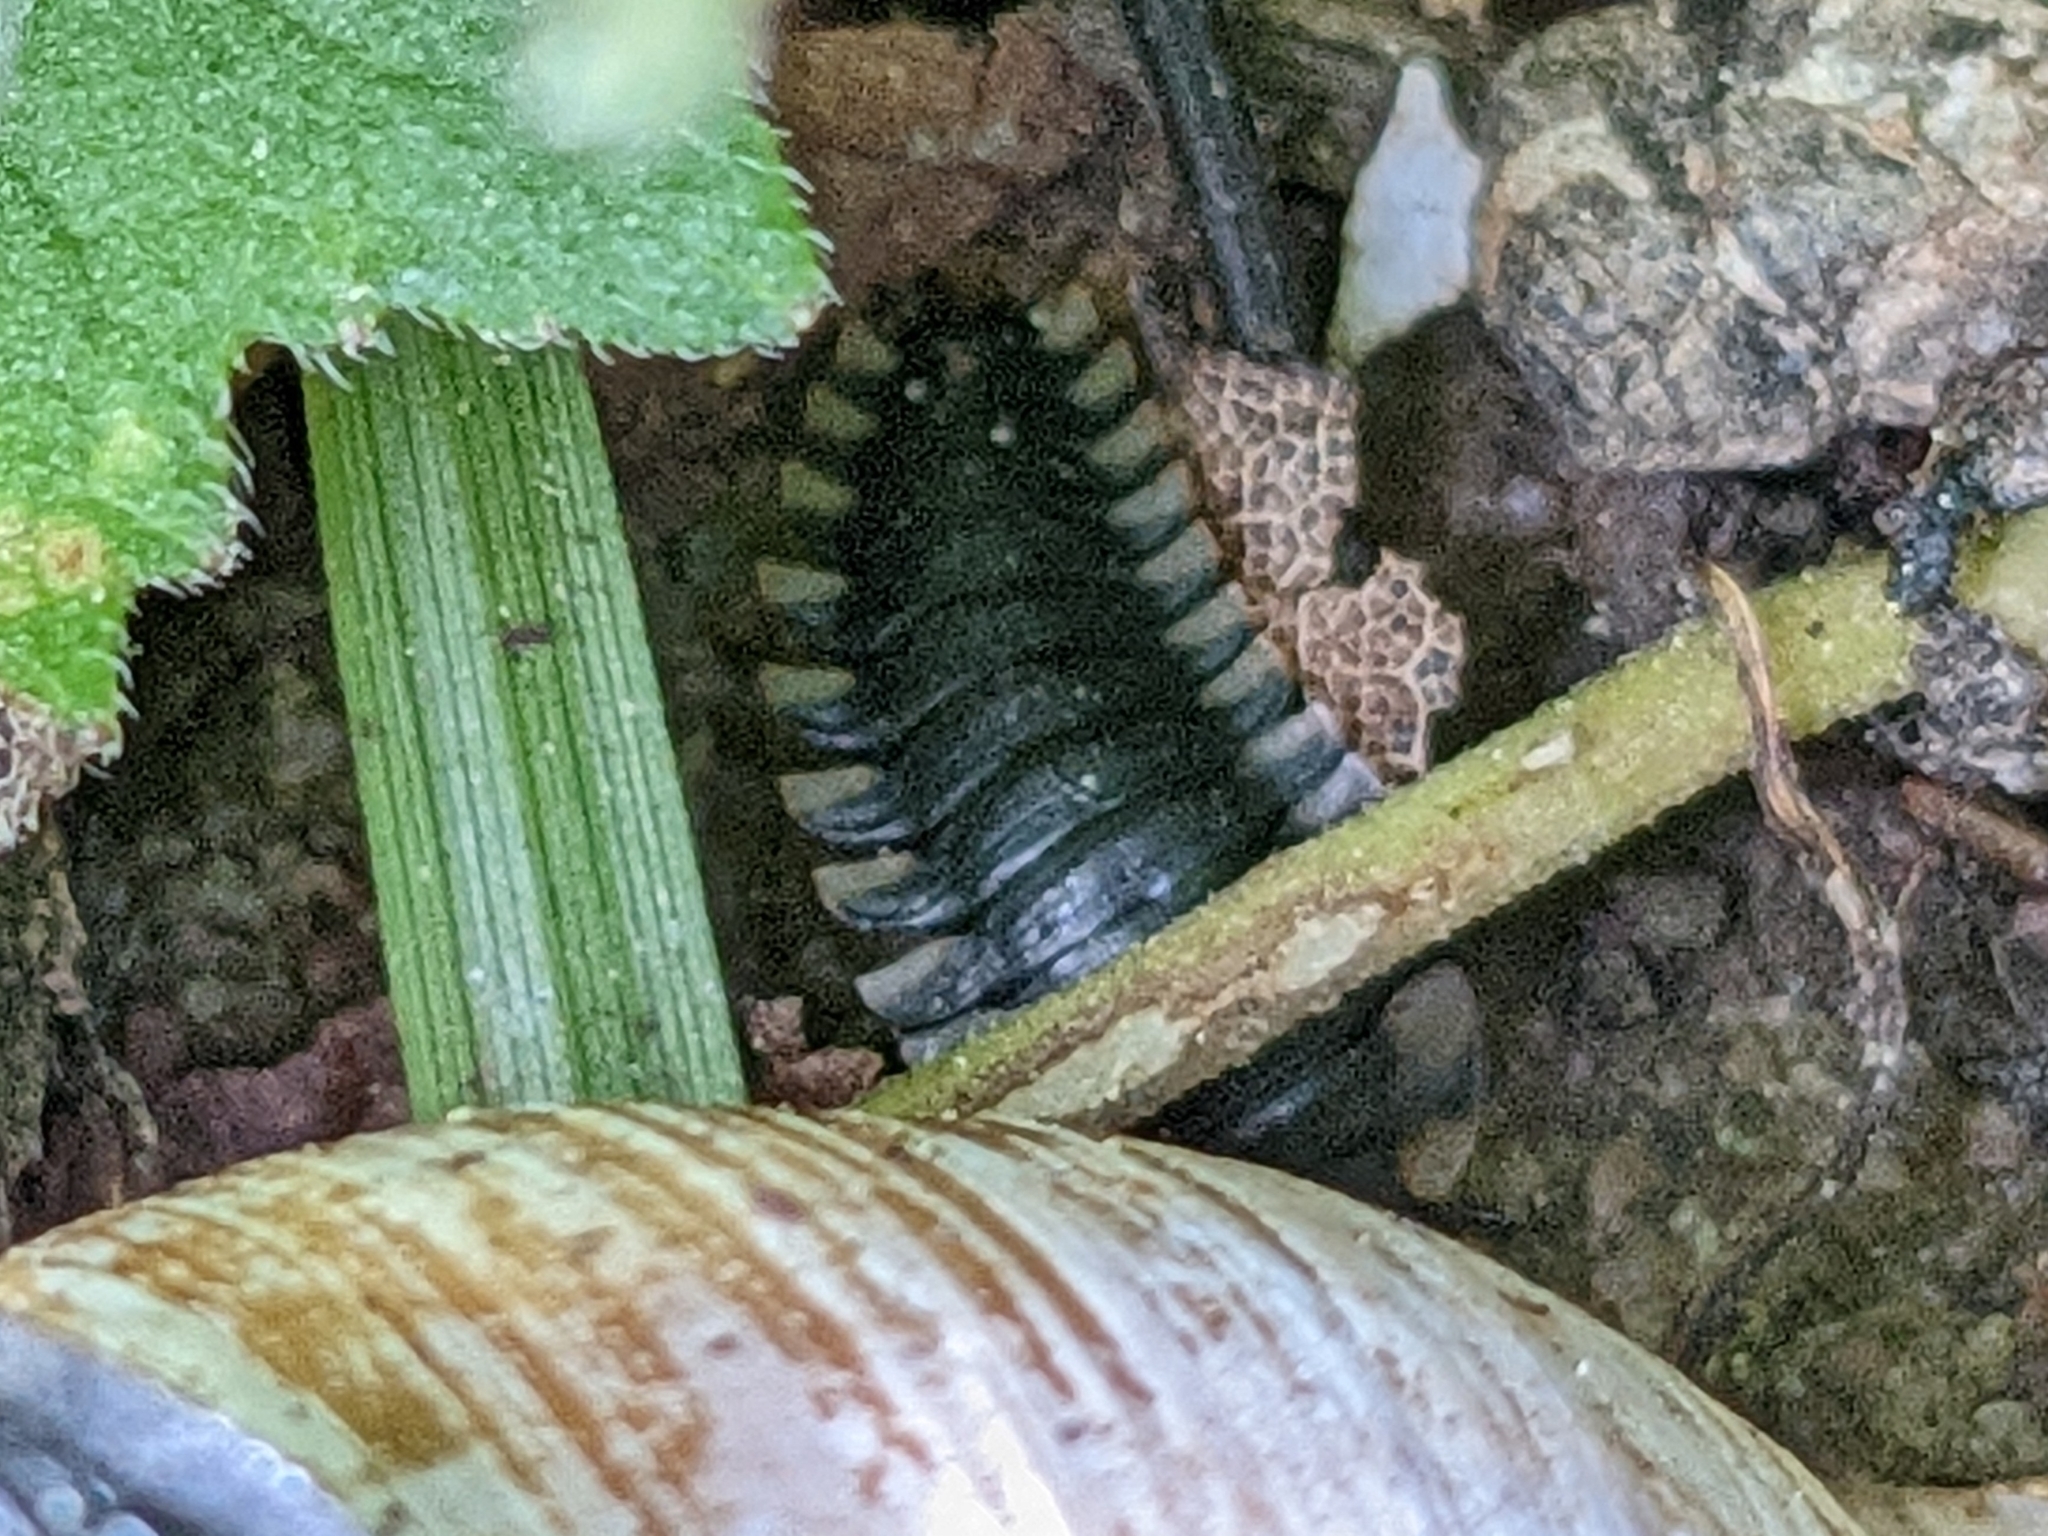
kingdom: Animalia
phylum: Arthropoda
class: Insecta
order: Coleoptera
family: Staphylinidae
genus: Oiceoptoma
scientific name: Oiceoptoma thoracicum
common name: Red-breasted carrion beetle
